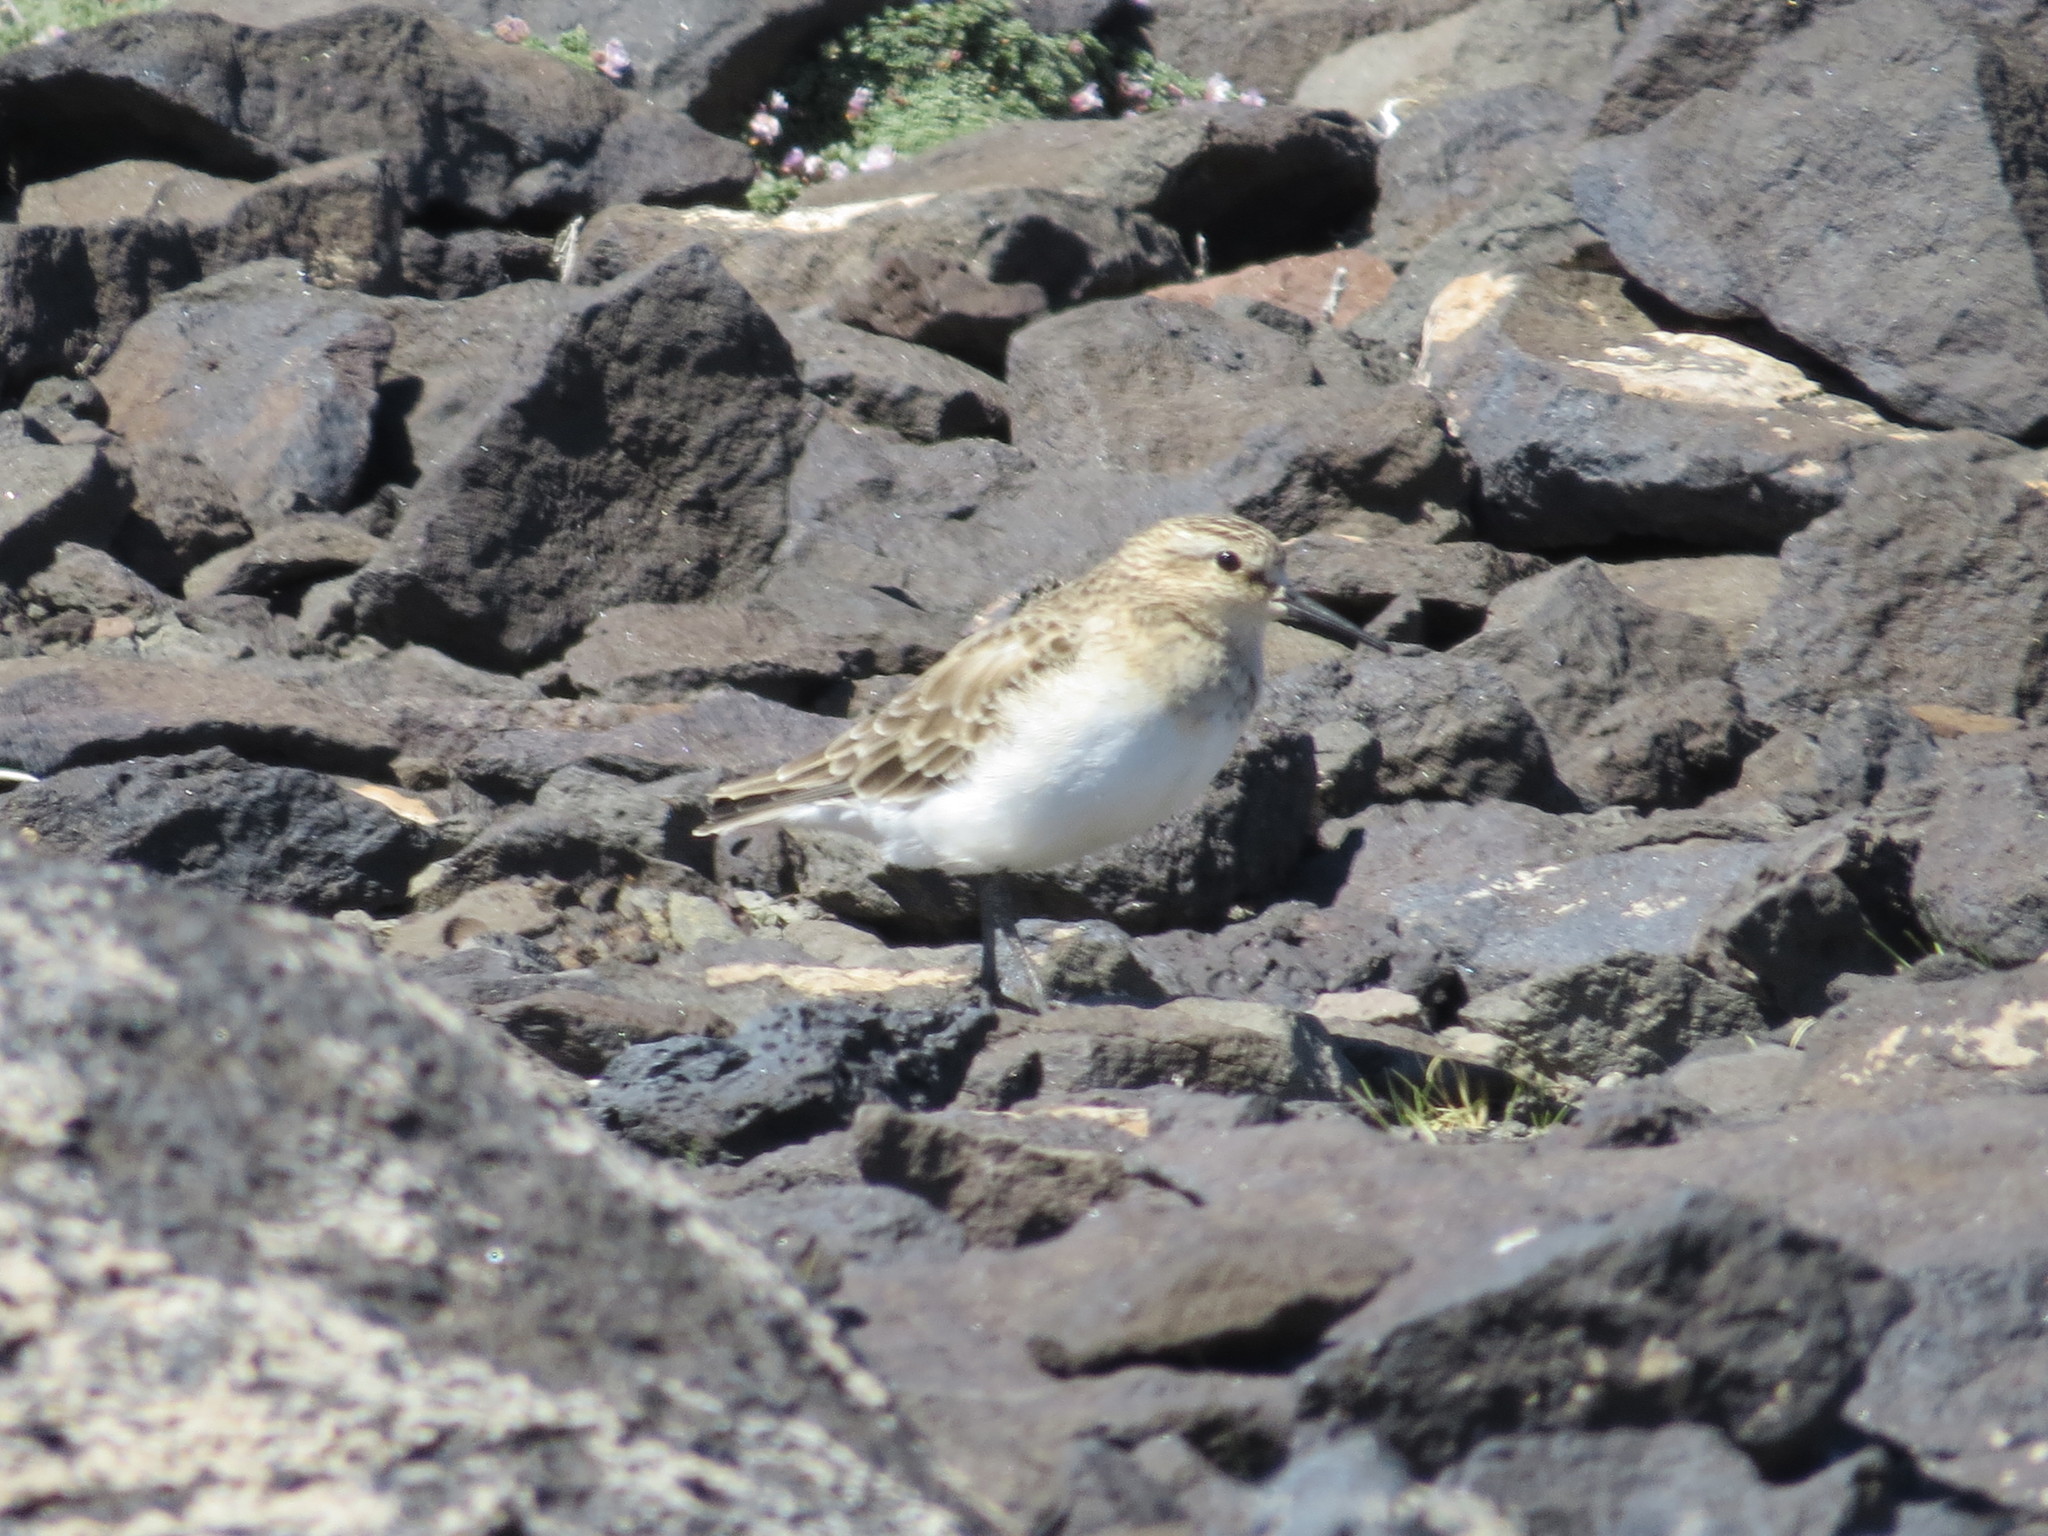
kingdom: Animalia
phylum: Chordata
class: Aves
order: Charadriiformes
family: Scolopacidae
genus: Calidris
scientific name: Calidris bairdii
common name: Baird's sandpiper
